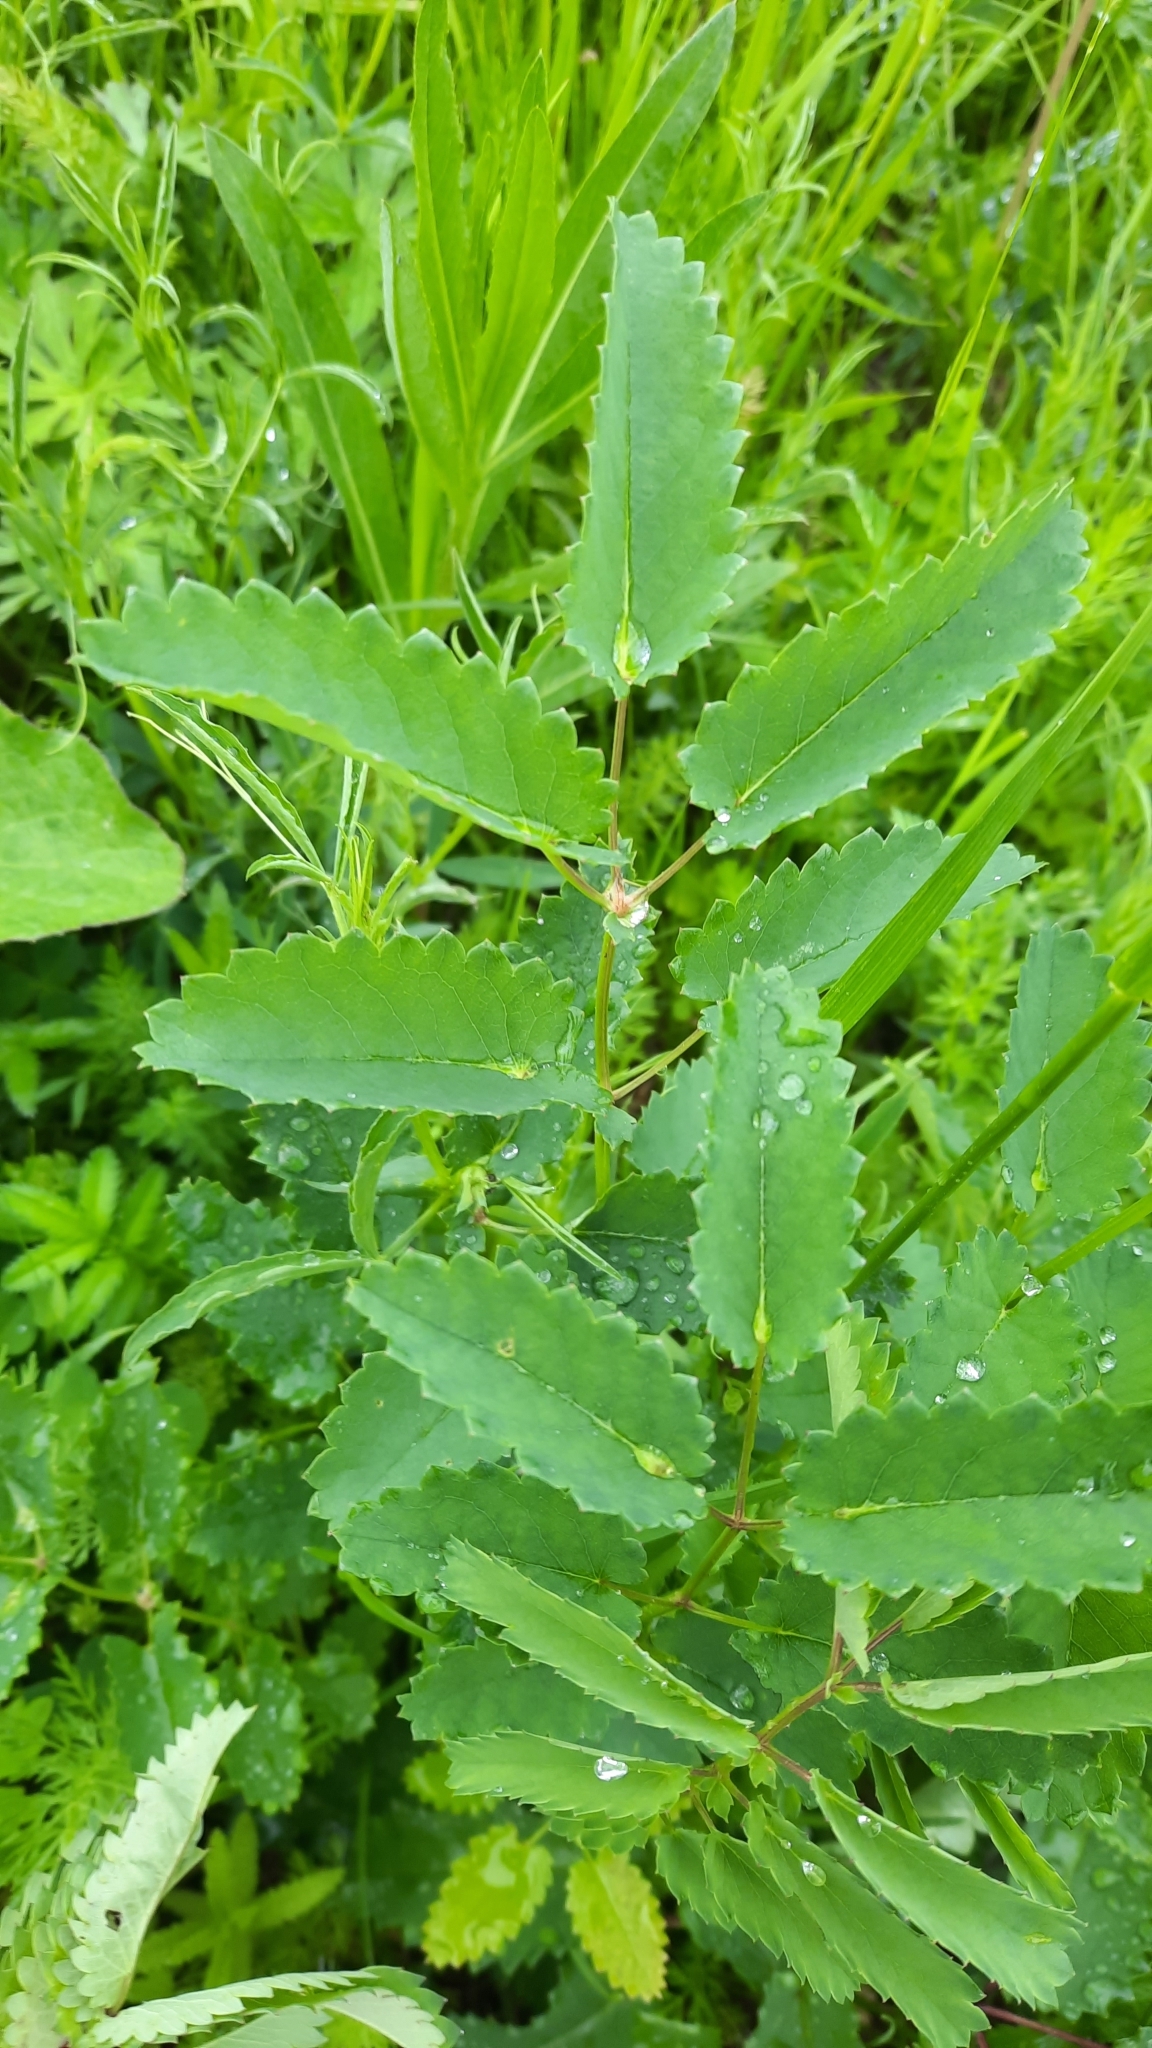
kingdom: Plantae
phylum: Tracheophyta
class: Magnoliopsida
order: Rosales
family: Rosaceae
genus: Sanguisorba
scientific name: Sanguisorba officinalis
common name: Great burnet
